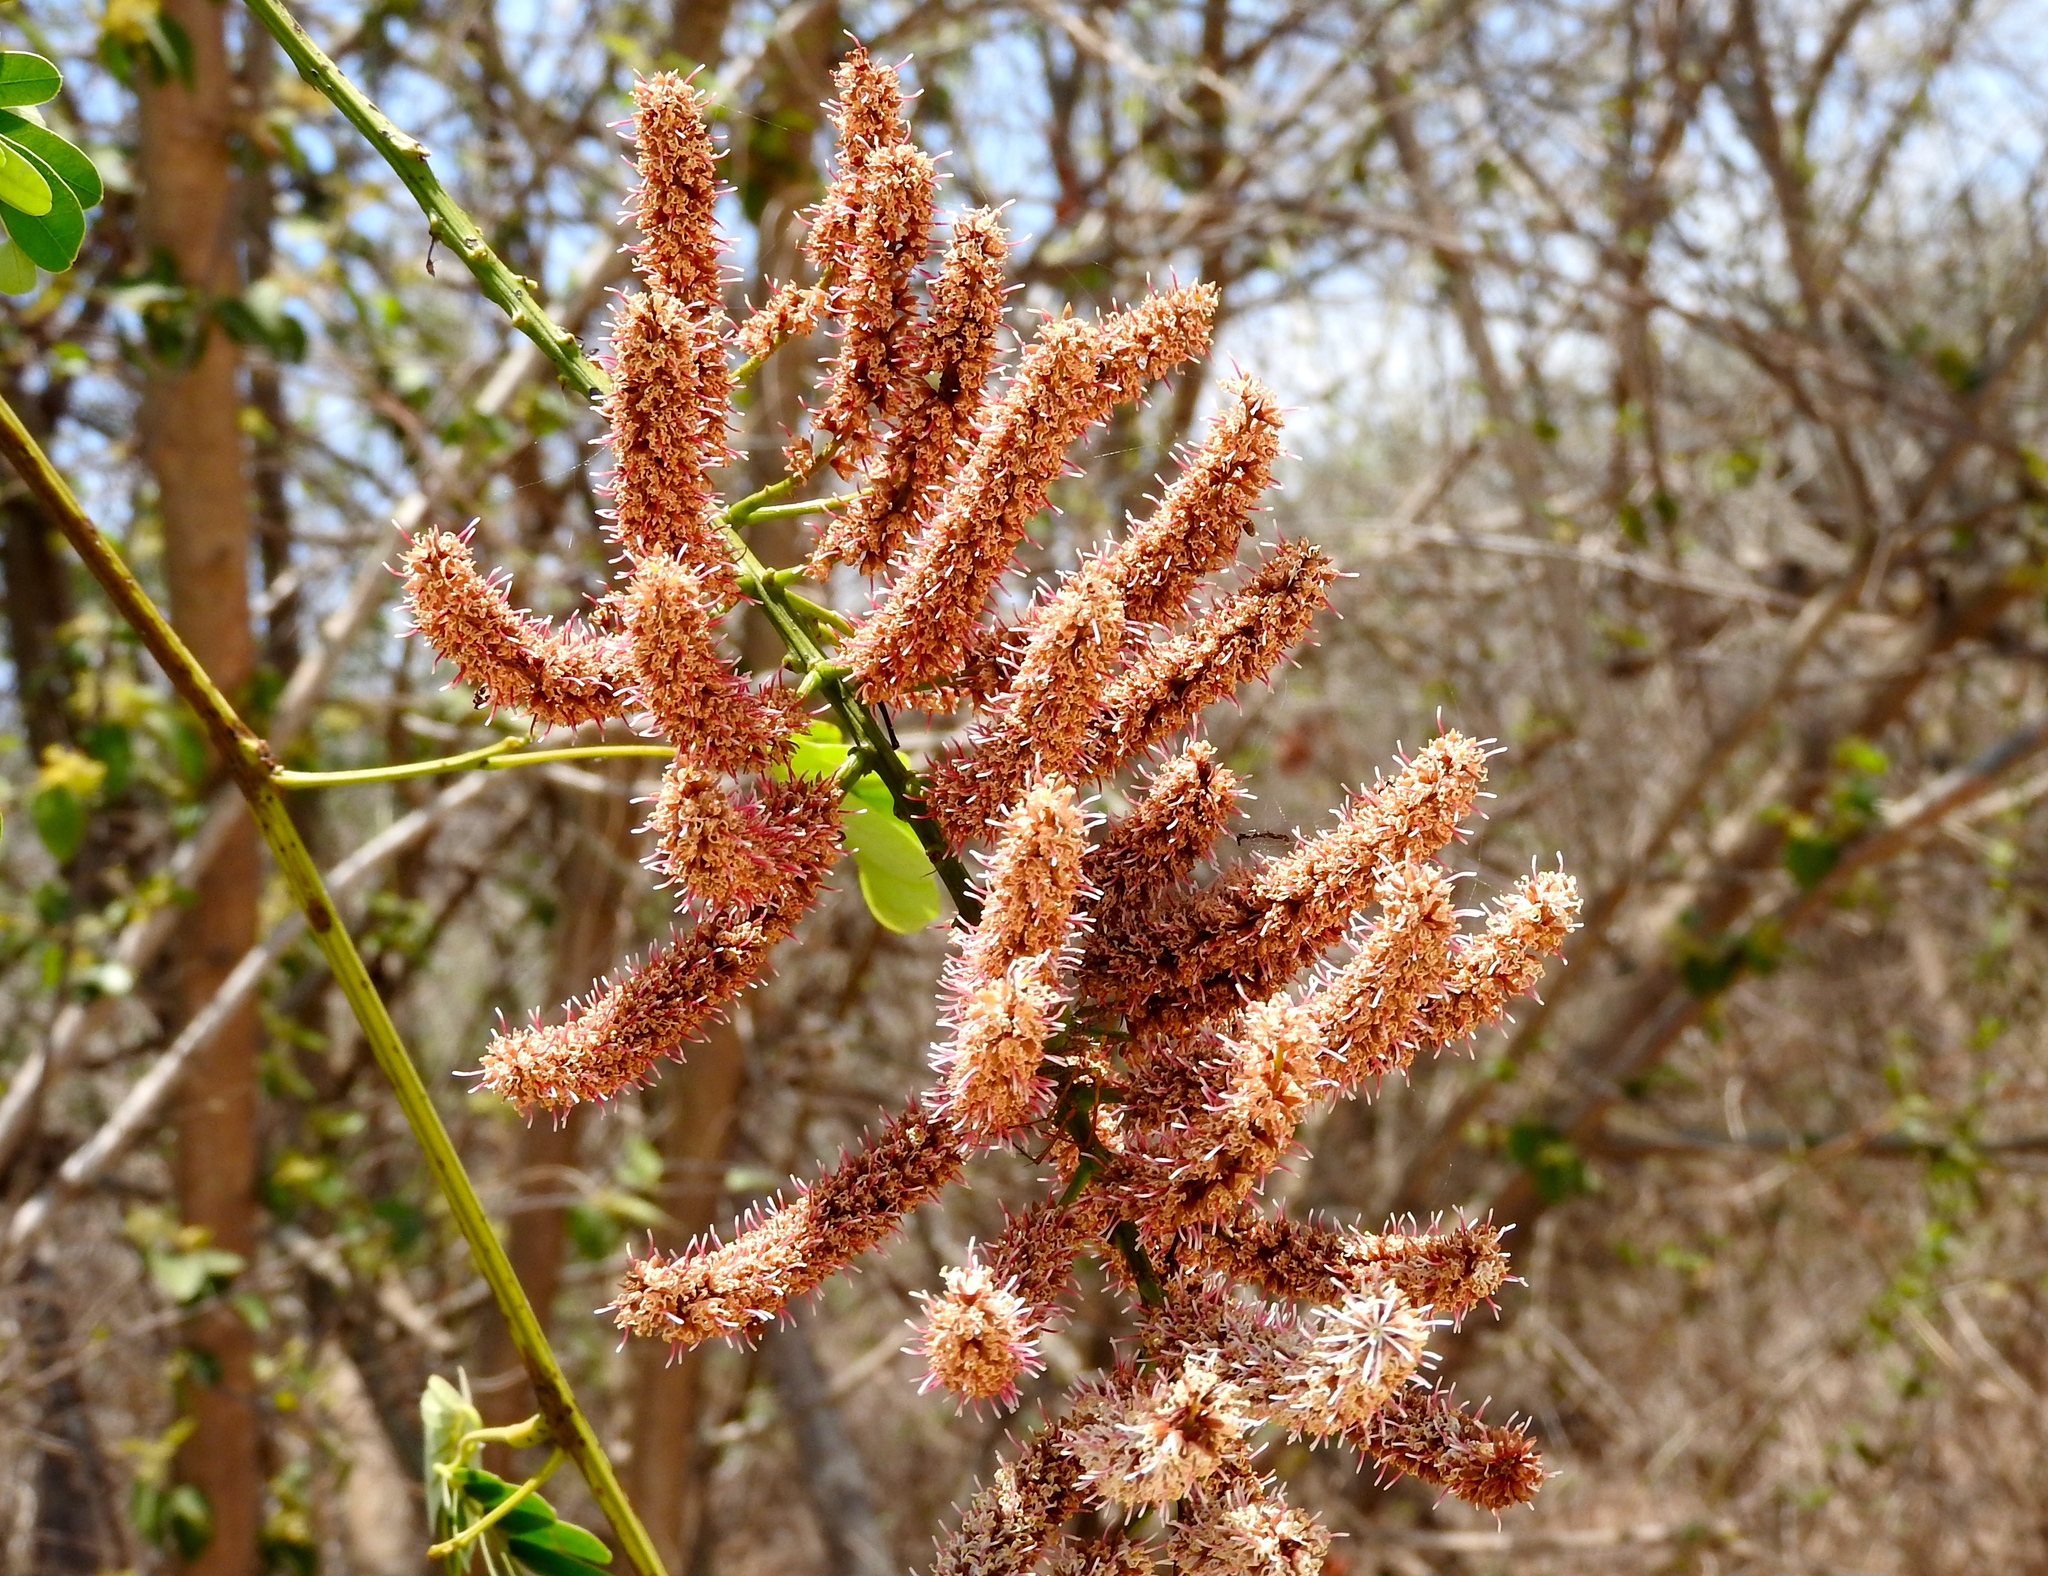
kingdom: Plantae
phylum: Tracheophyta
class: Magnoliopsida
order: Fabales
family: Fabaceae
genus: Entada
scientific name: Entada polystachya
